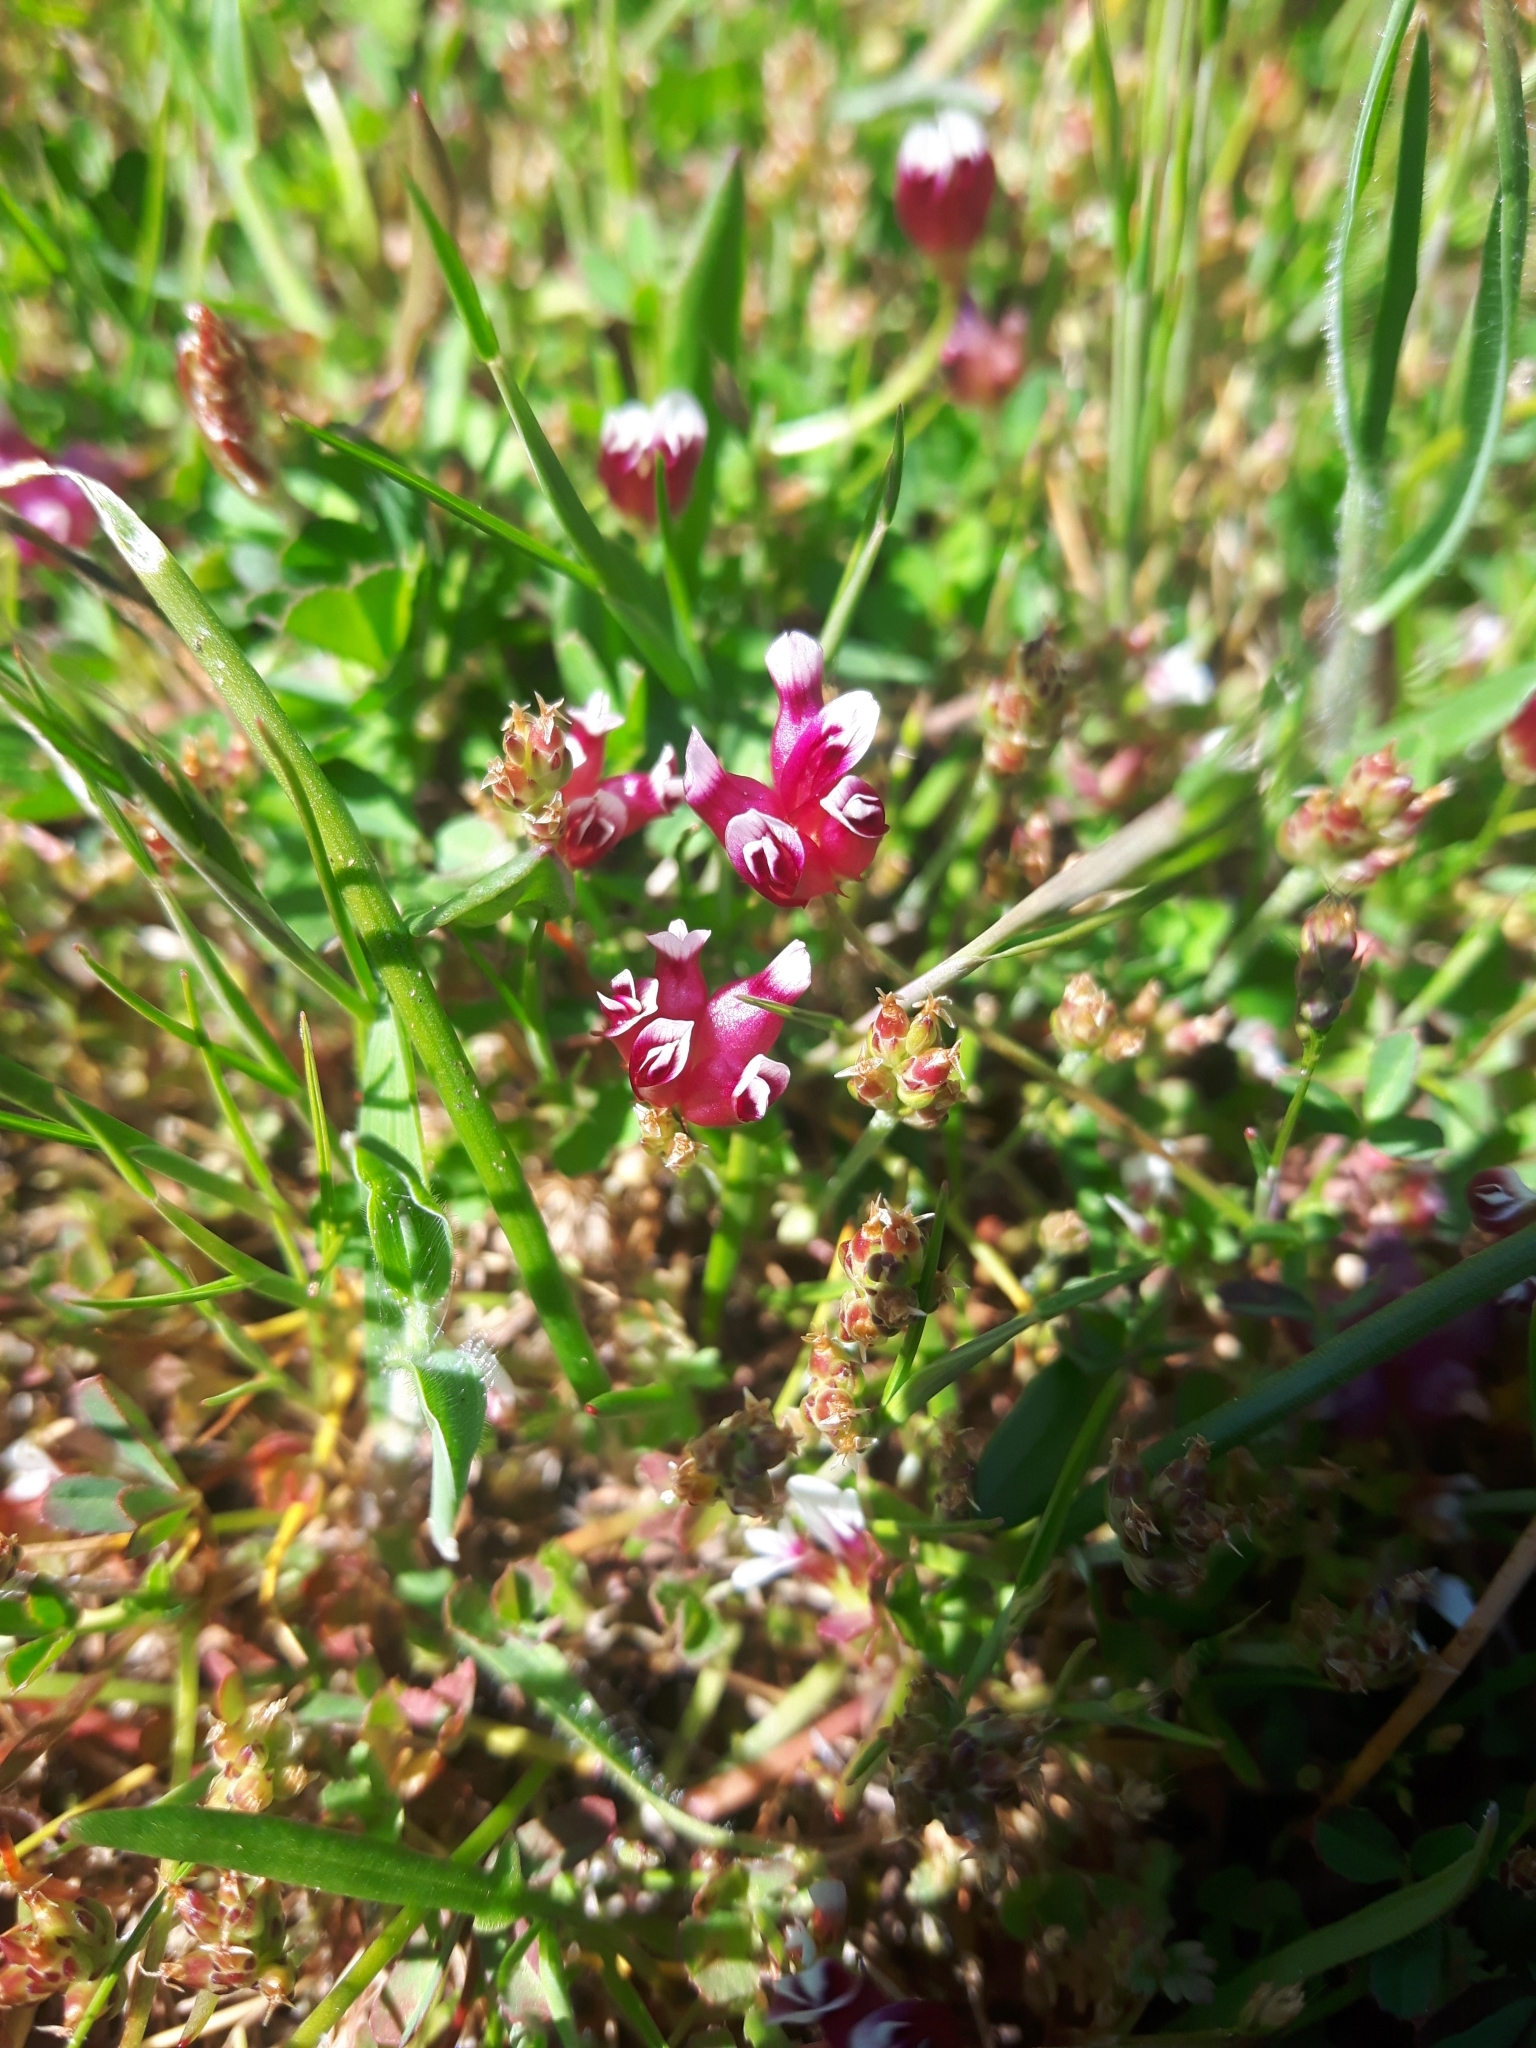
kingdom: Plantae
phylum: Tracheophyta
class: Magnoliopsida
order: Fabales
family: Fabaceae
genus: Trifolium
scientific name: Trifolium depauperatum
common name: Poverty clover
